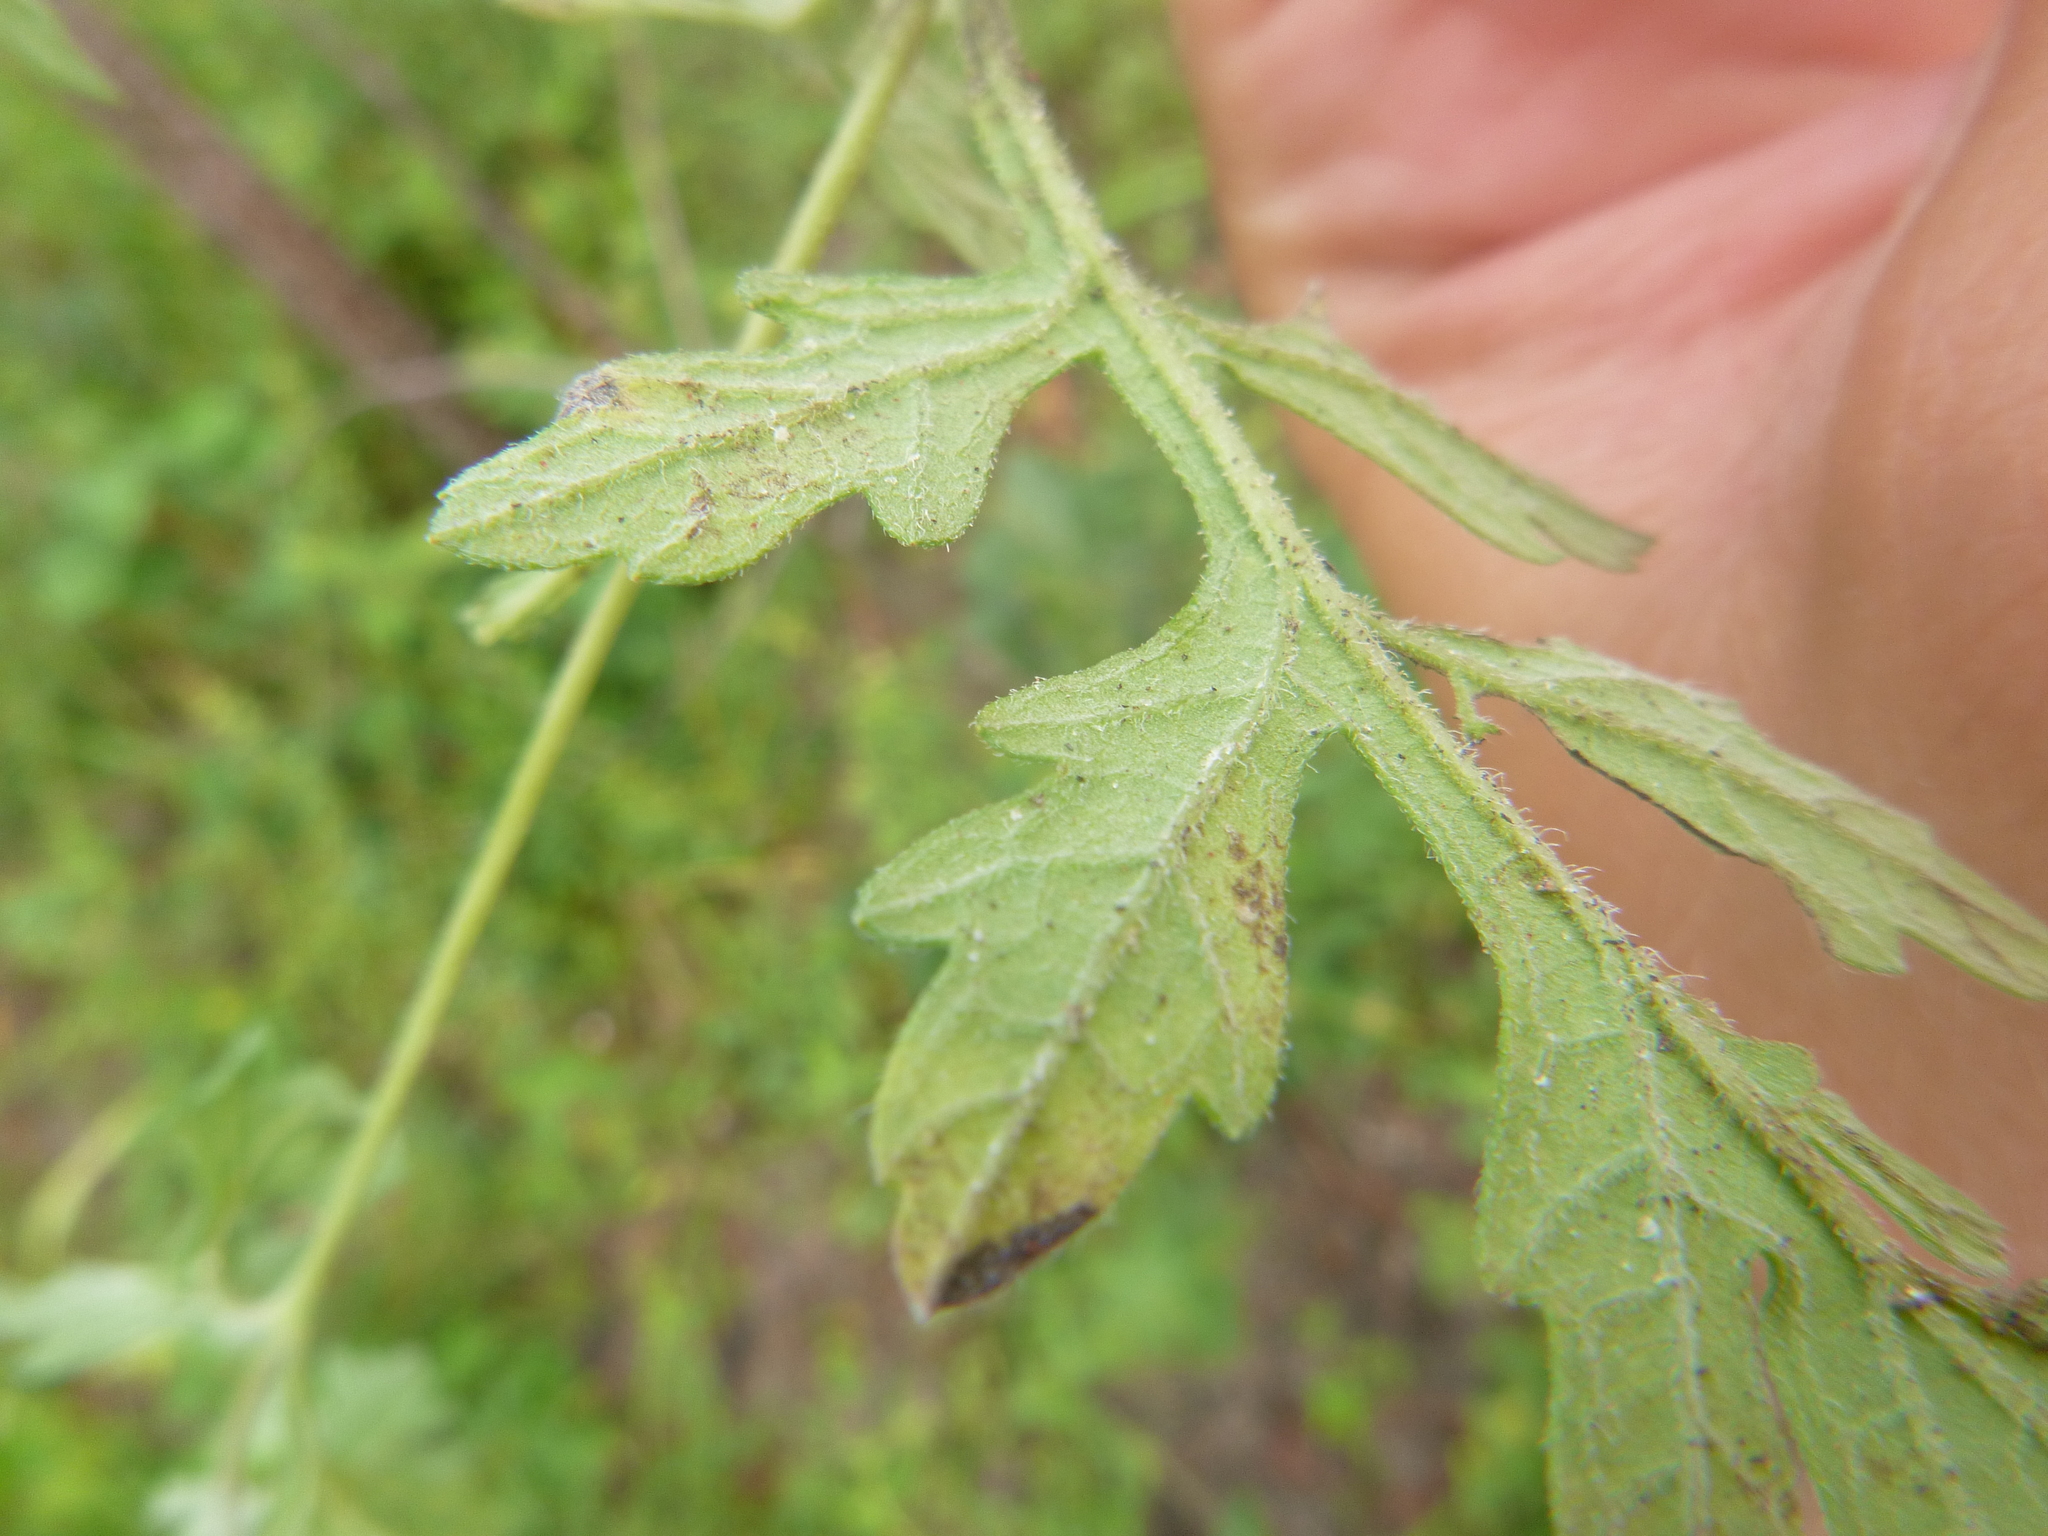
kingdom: Plantae
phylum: Tracheophyta
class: Magnoliopsida
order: Asterales
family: Asteraceae
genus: Ambrosia
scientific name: Ambrosia psilostachya
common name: Perennial ragweed
